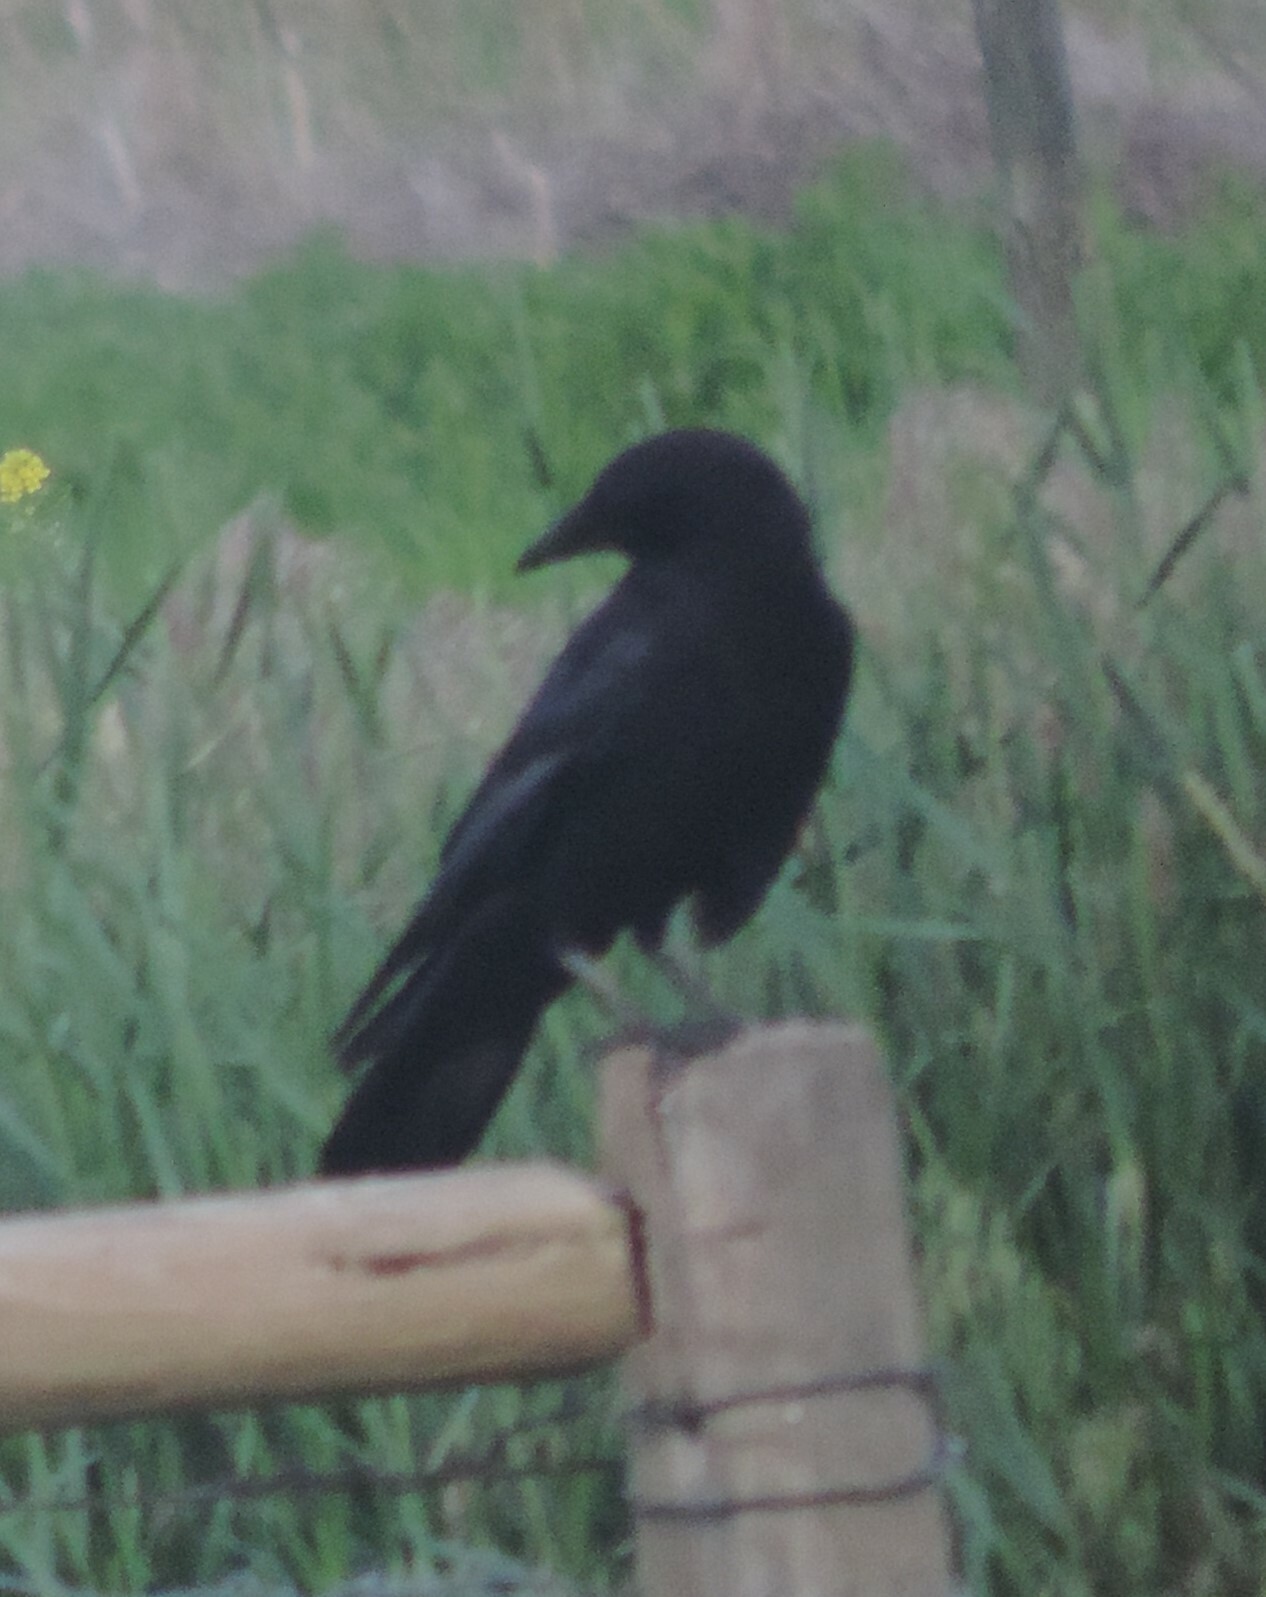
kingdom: Animalia
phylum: Chordata
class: Aves
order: Passeriformes
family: Corvidae
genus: Corvus
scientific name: Corvus brachyrhynchos
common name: American crow
